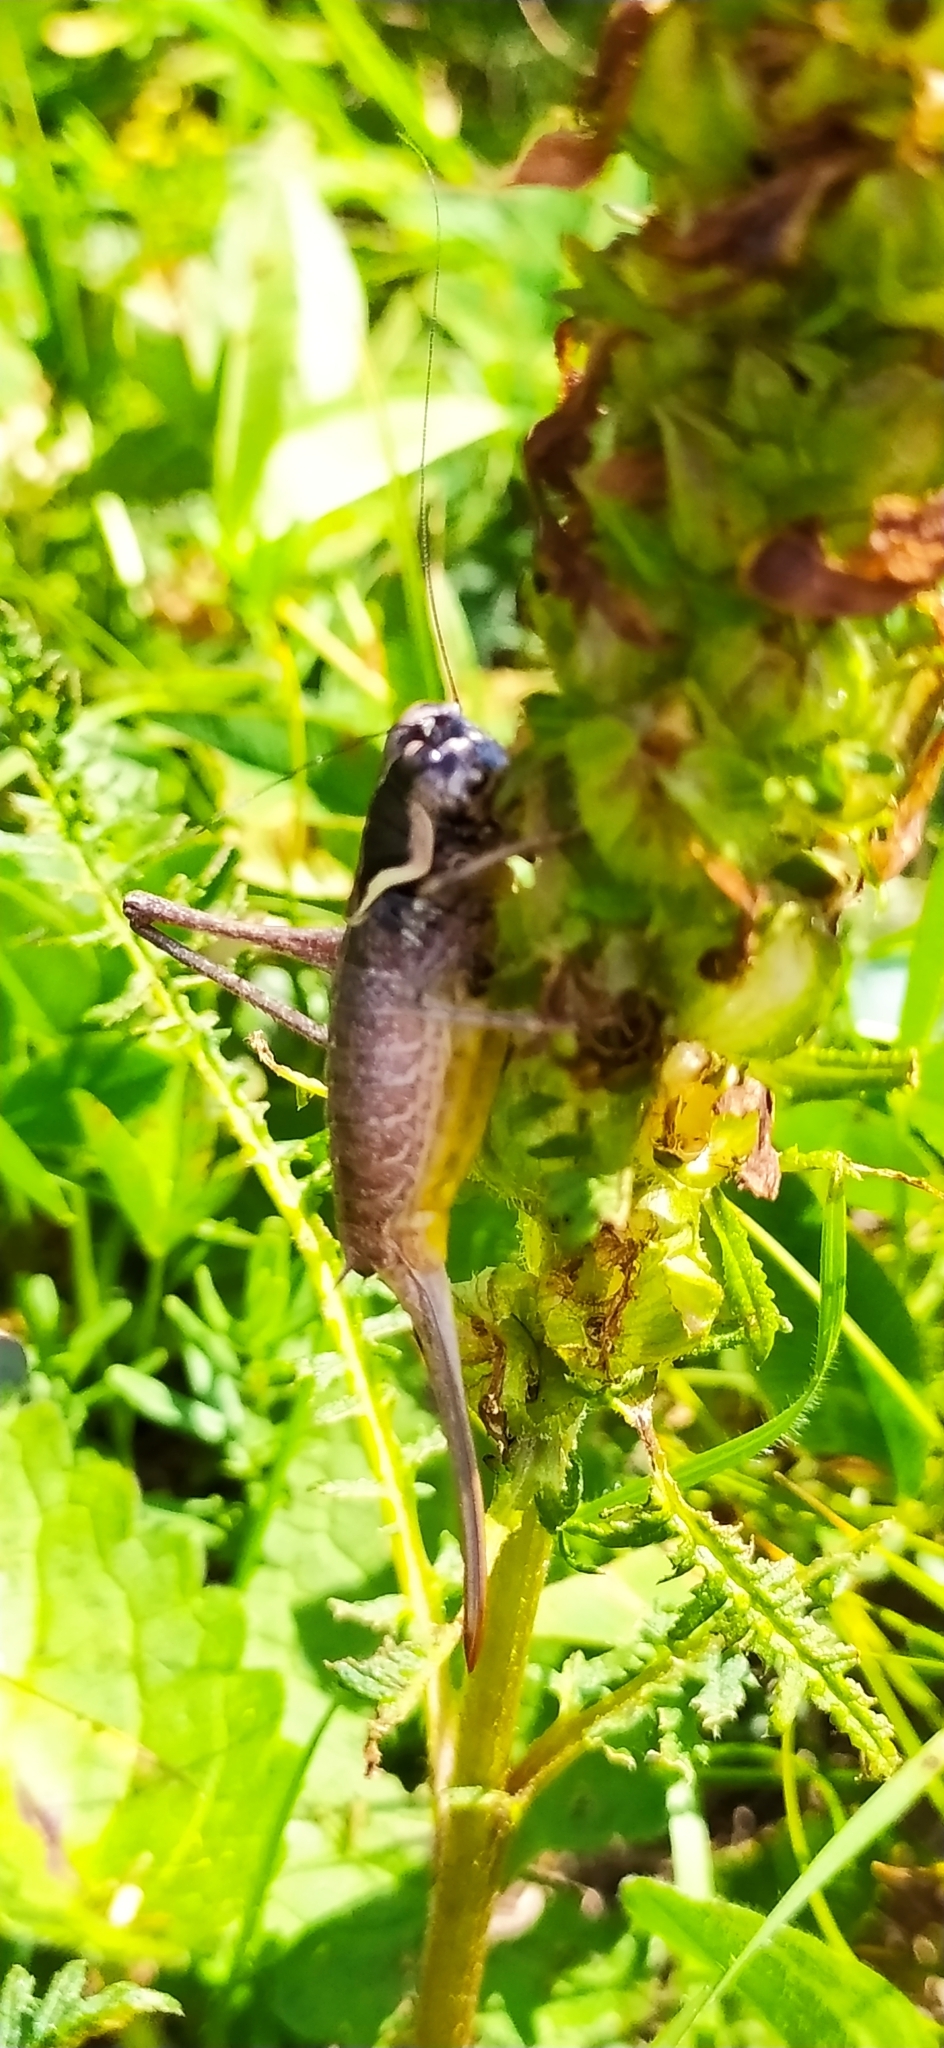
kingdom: Animalia
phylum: Arthropoda
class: Insecta
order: Orthoptera
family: Tettigoniidae
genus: Pholidoptera
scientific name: Pholidoptera pustulipes
